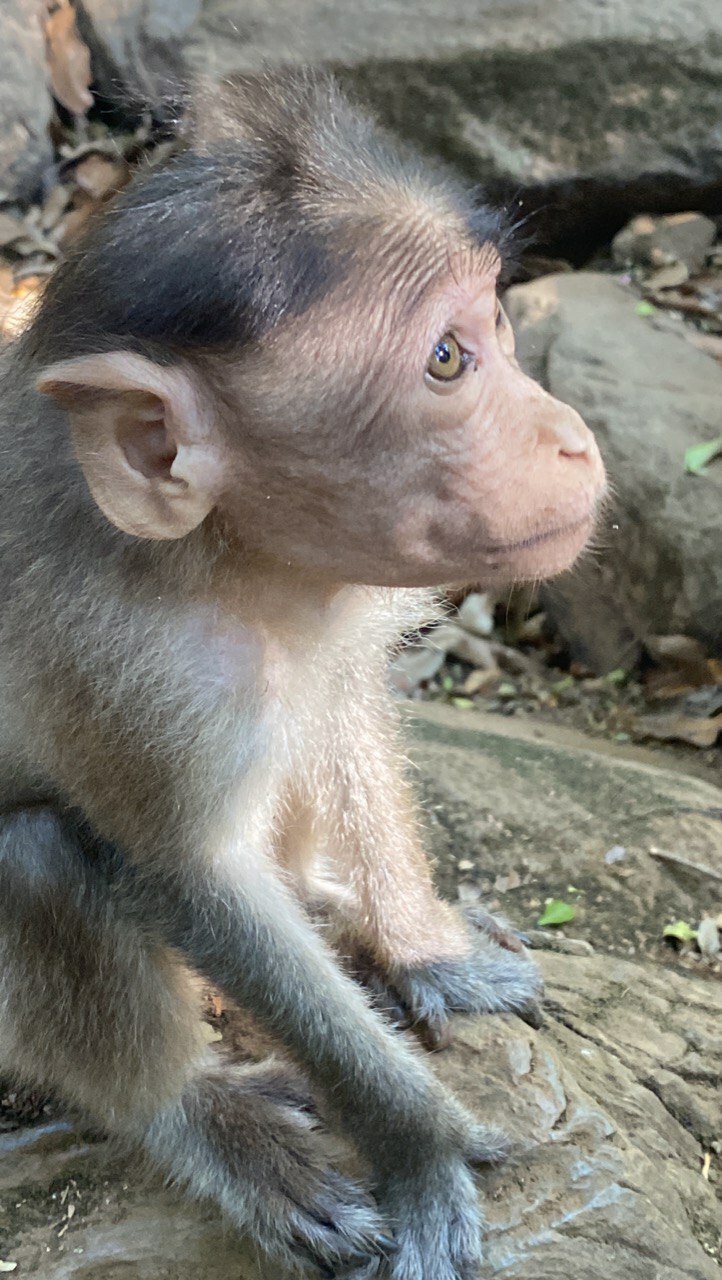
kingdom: Animalia
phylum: Chordata
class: Mammalia
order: Primates
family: Cercopithecidae
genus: Macaca
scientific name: Macaca radiata
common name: Bonnet macaque
